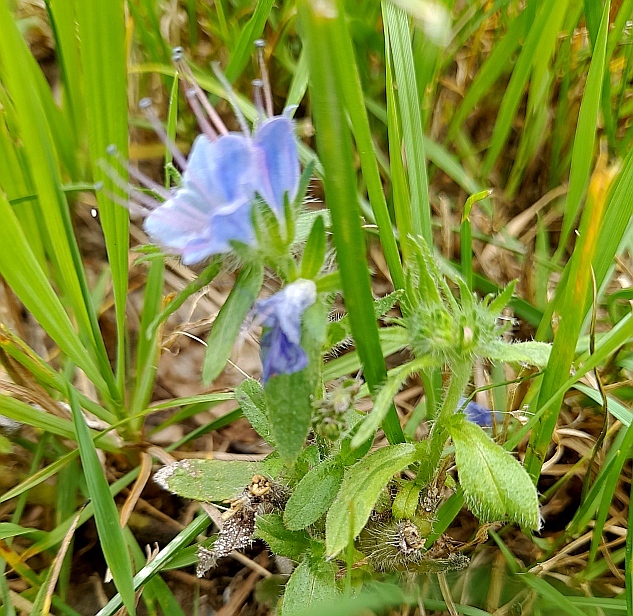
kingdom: Plantae
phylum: Tracheophyta
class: Magnoliopsida
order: Boraginales
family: Boraginaceae
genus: Echium
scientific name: Echium vulgare
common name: Common viper's bugloss
